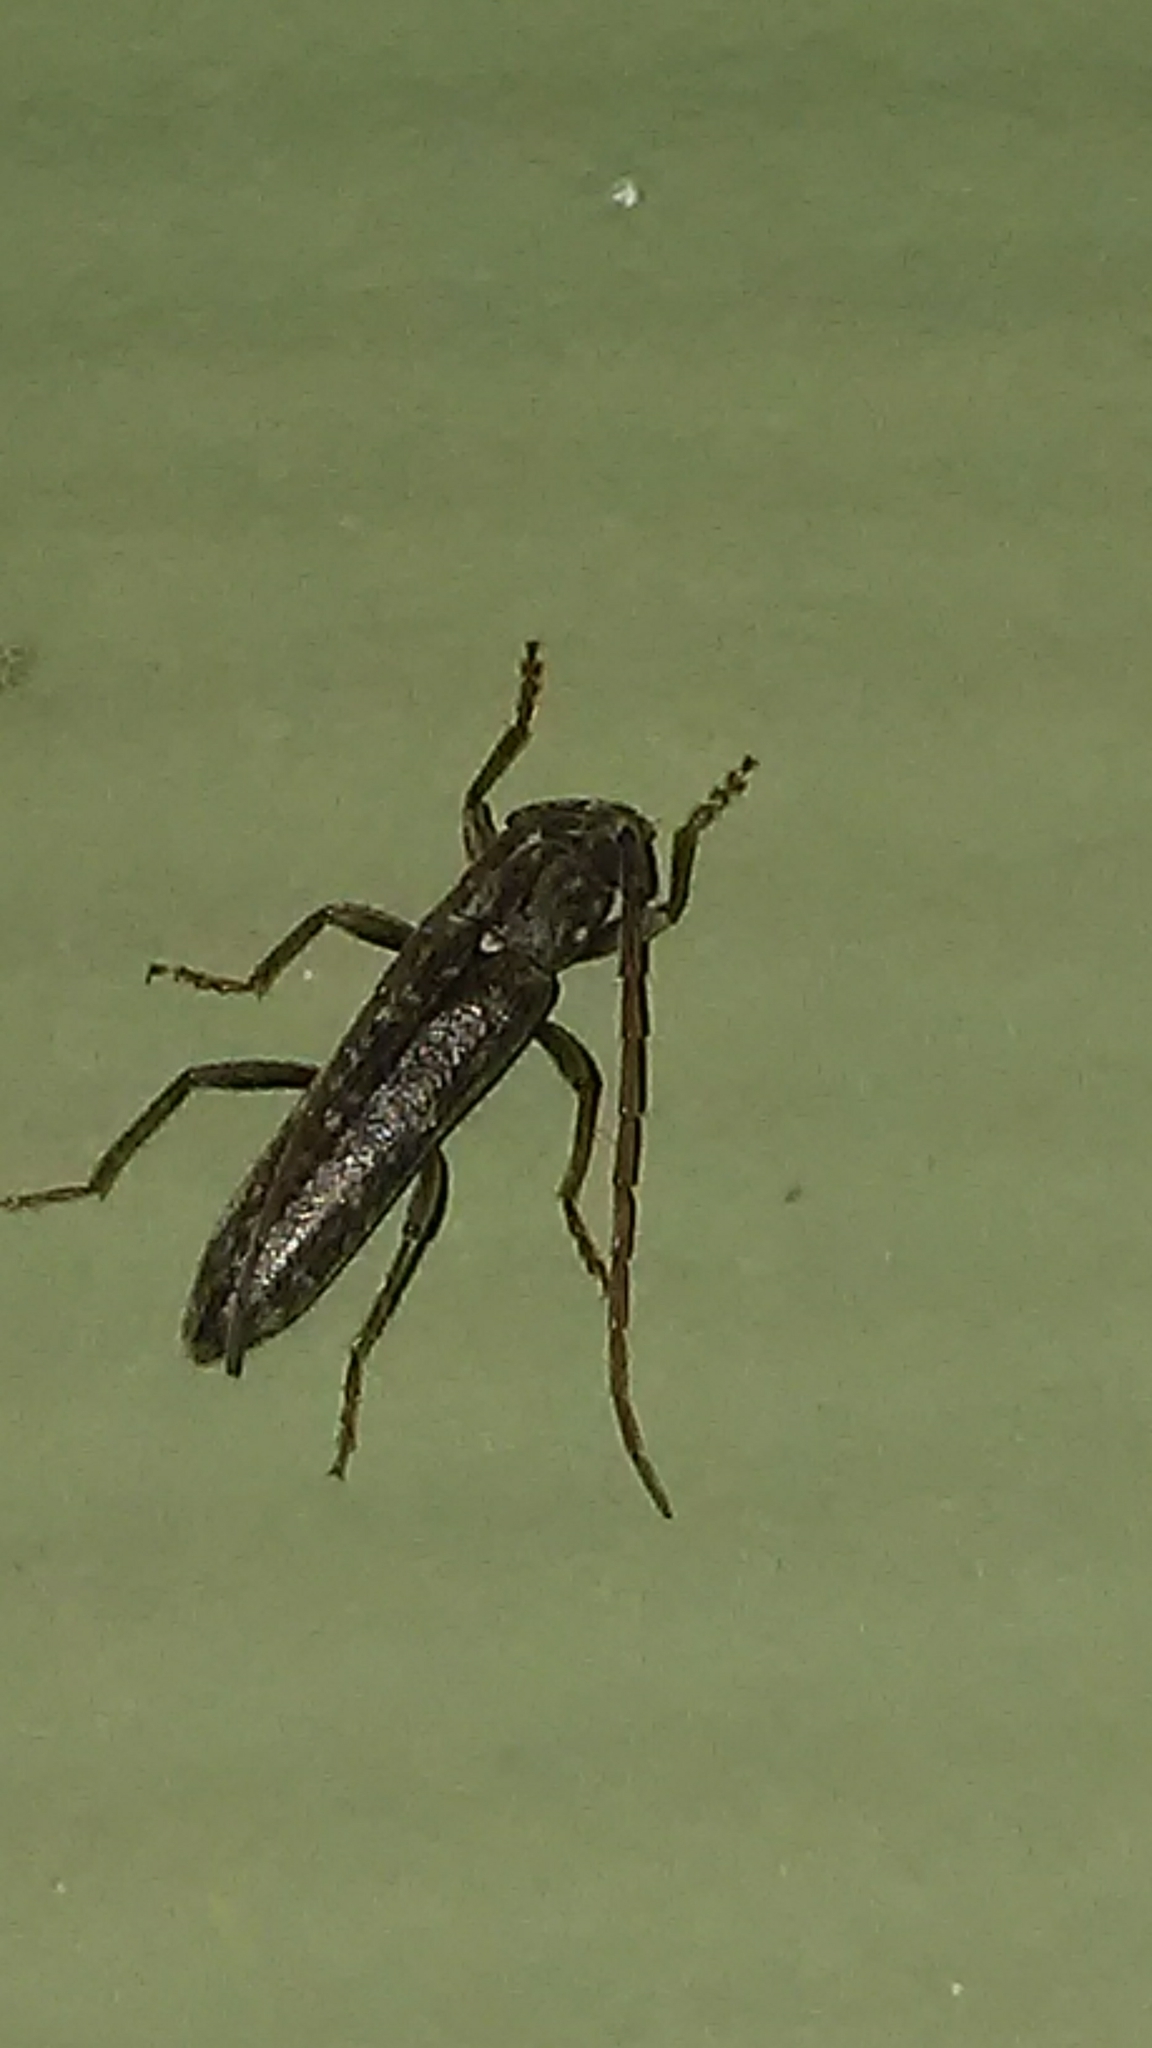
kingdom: Animalia
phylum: Arthropoda
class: Insecta
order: Coleoptera
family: Cerambycidae
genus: Elaphidion
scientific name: Elaphidion mucronatum
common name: Spined oak borer
